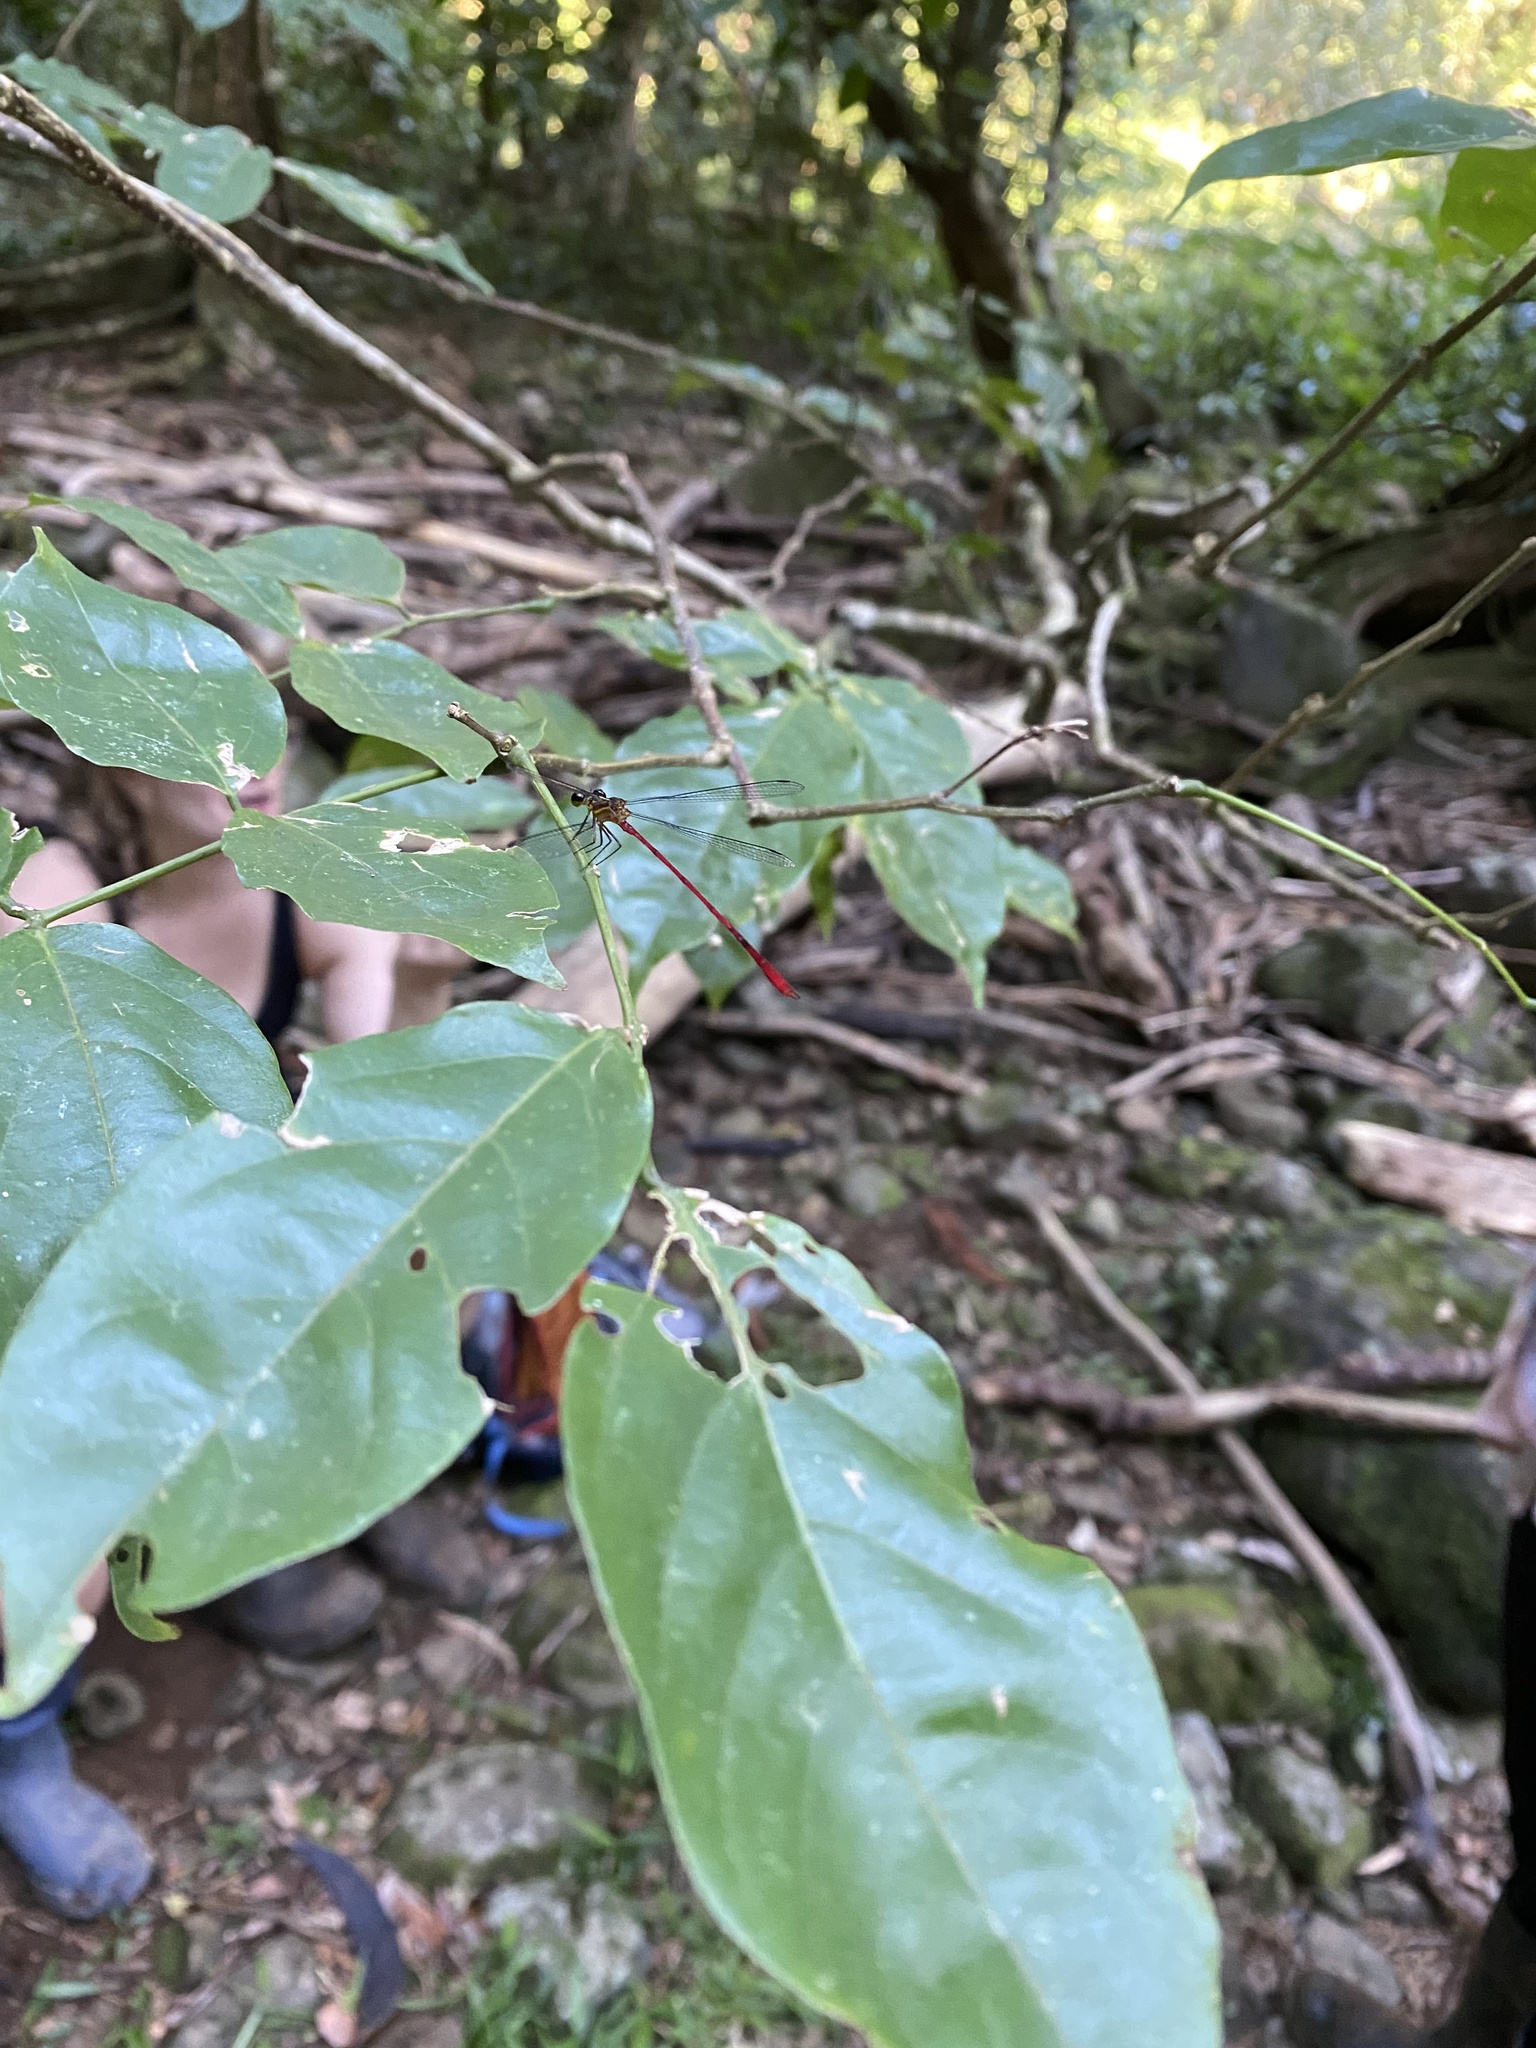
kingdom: Animalia
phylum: Arthropoda
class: Insecta
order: Odonata
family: Heteragrionidae
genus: Heteragrion
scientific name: Heteragrion albifrons
